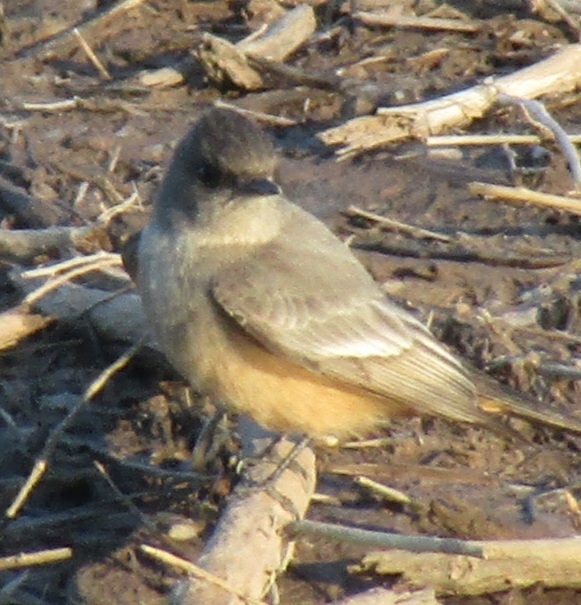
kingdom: Animalia
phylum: Chordata
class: Aves
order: Passeriformes
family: Tyrannidae
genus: Sayornis
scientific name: Sayornis saya
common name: Say's phoebe
